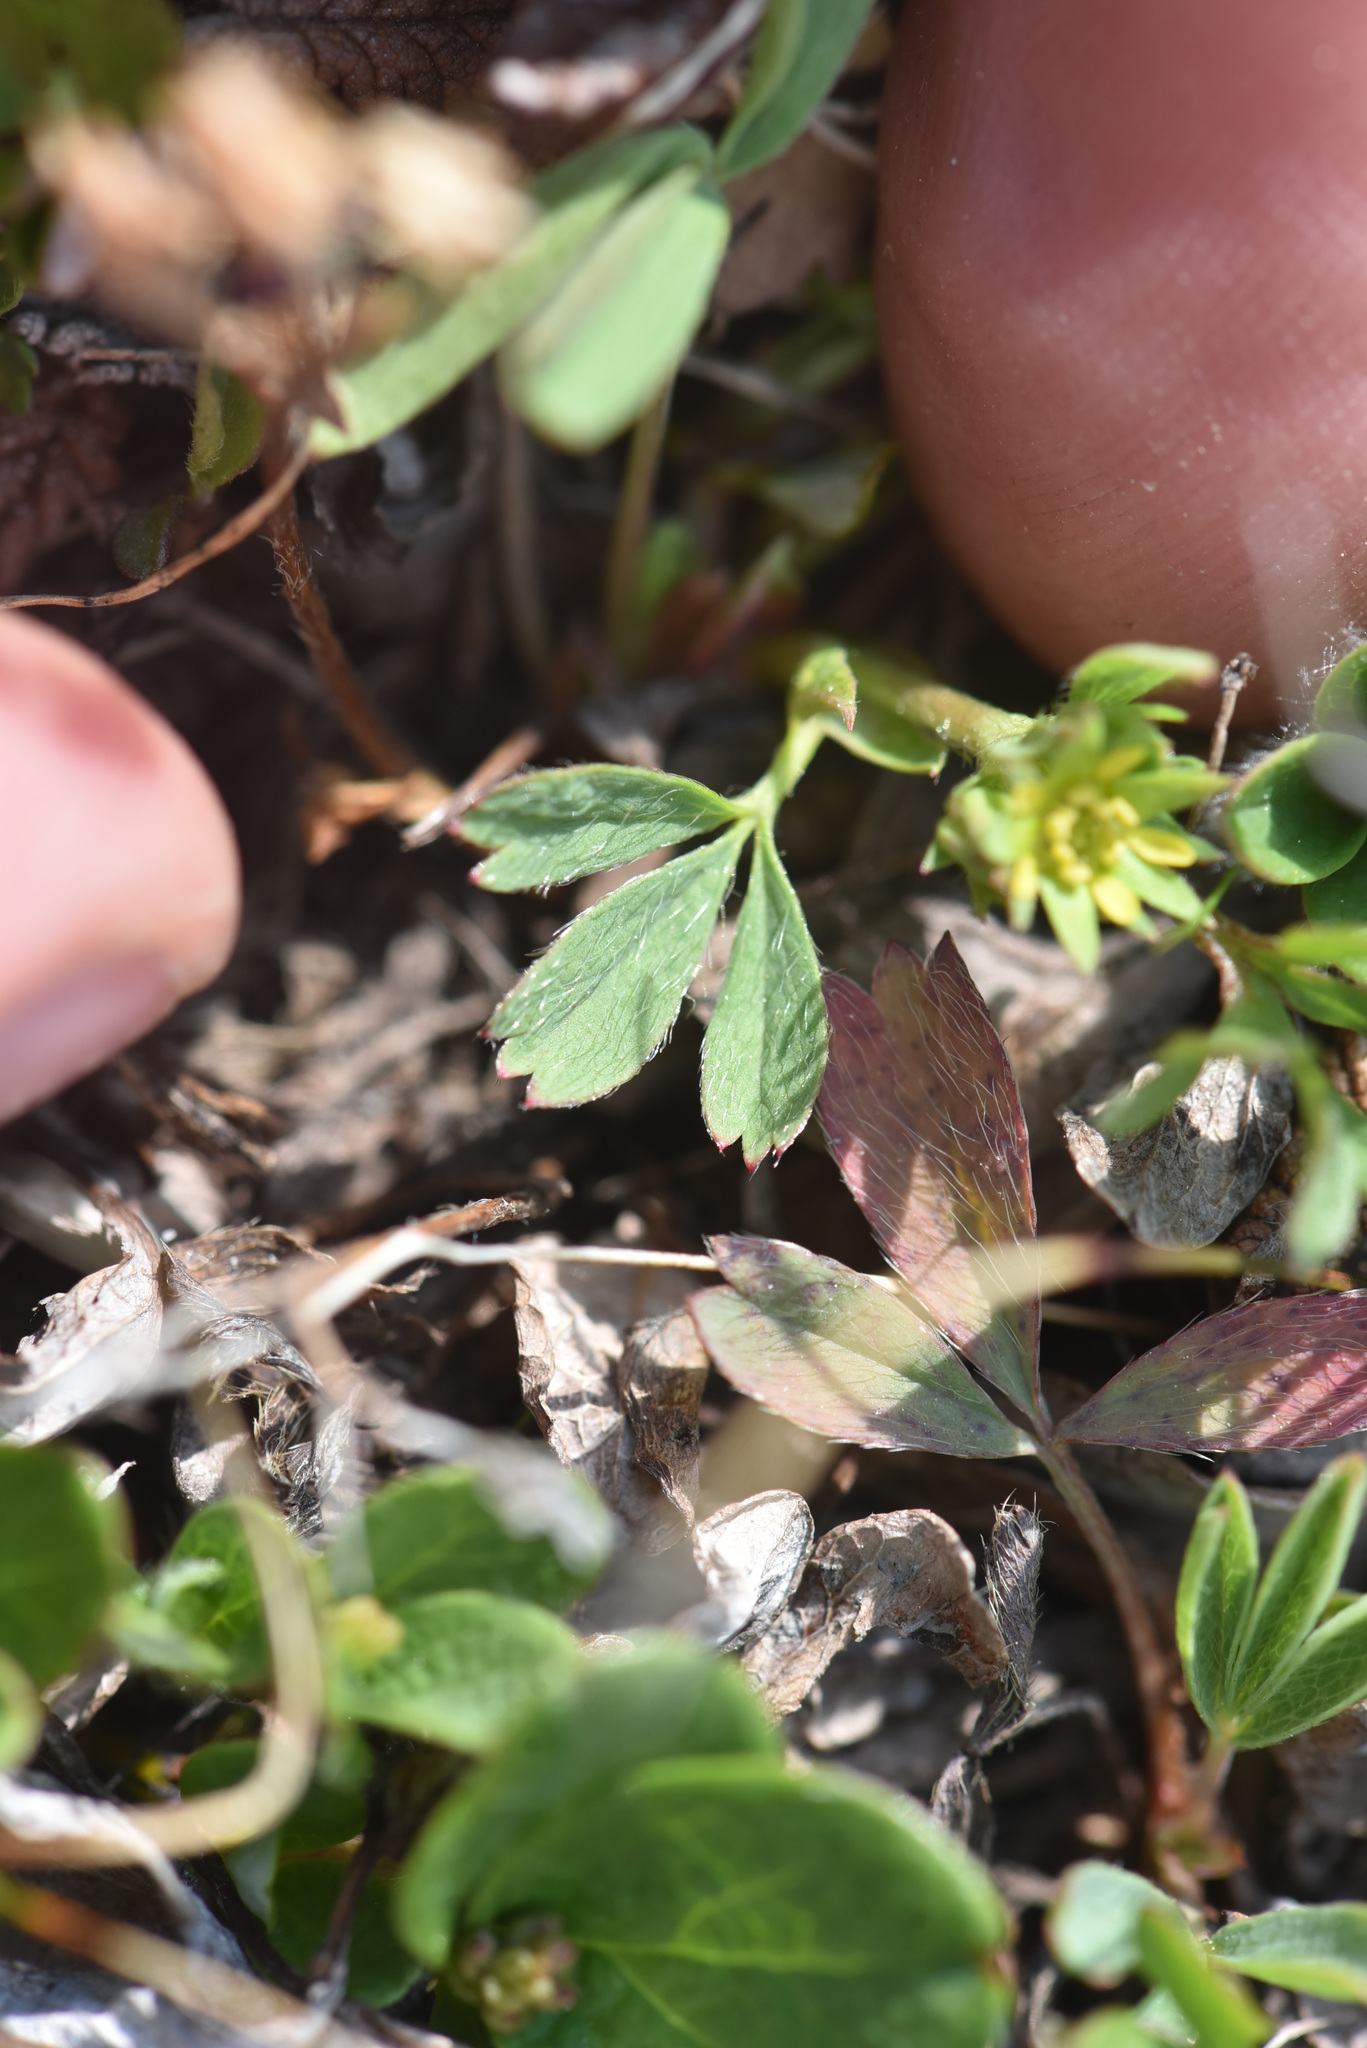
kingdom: Plantae
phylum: Tracheophyta
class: Magnoliopsida
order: Rosales
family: Rosaceae
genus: Sibbaldia
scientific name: Sibbaldia procumbens
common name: Creeping sibbaldia
